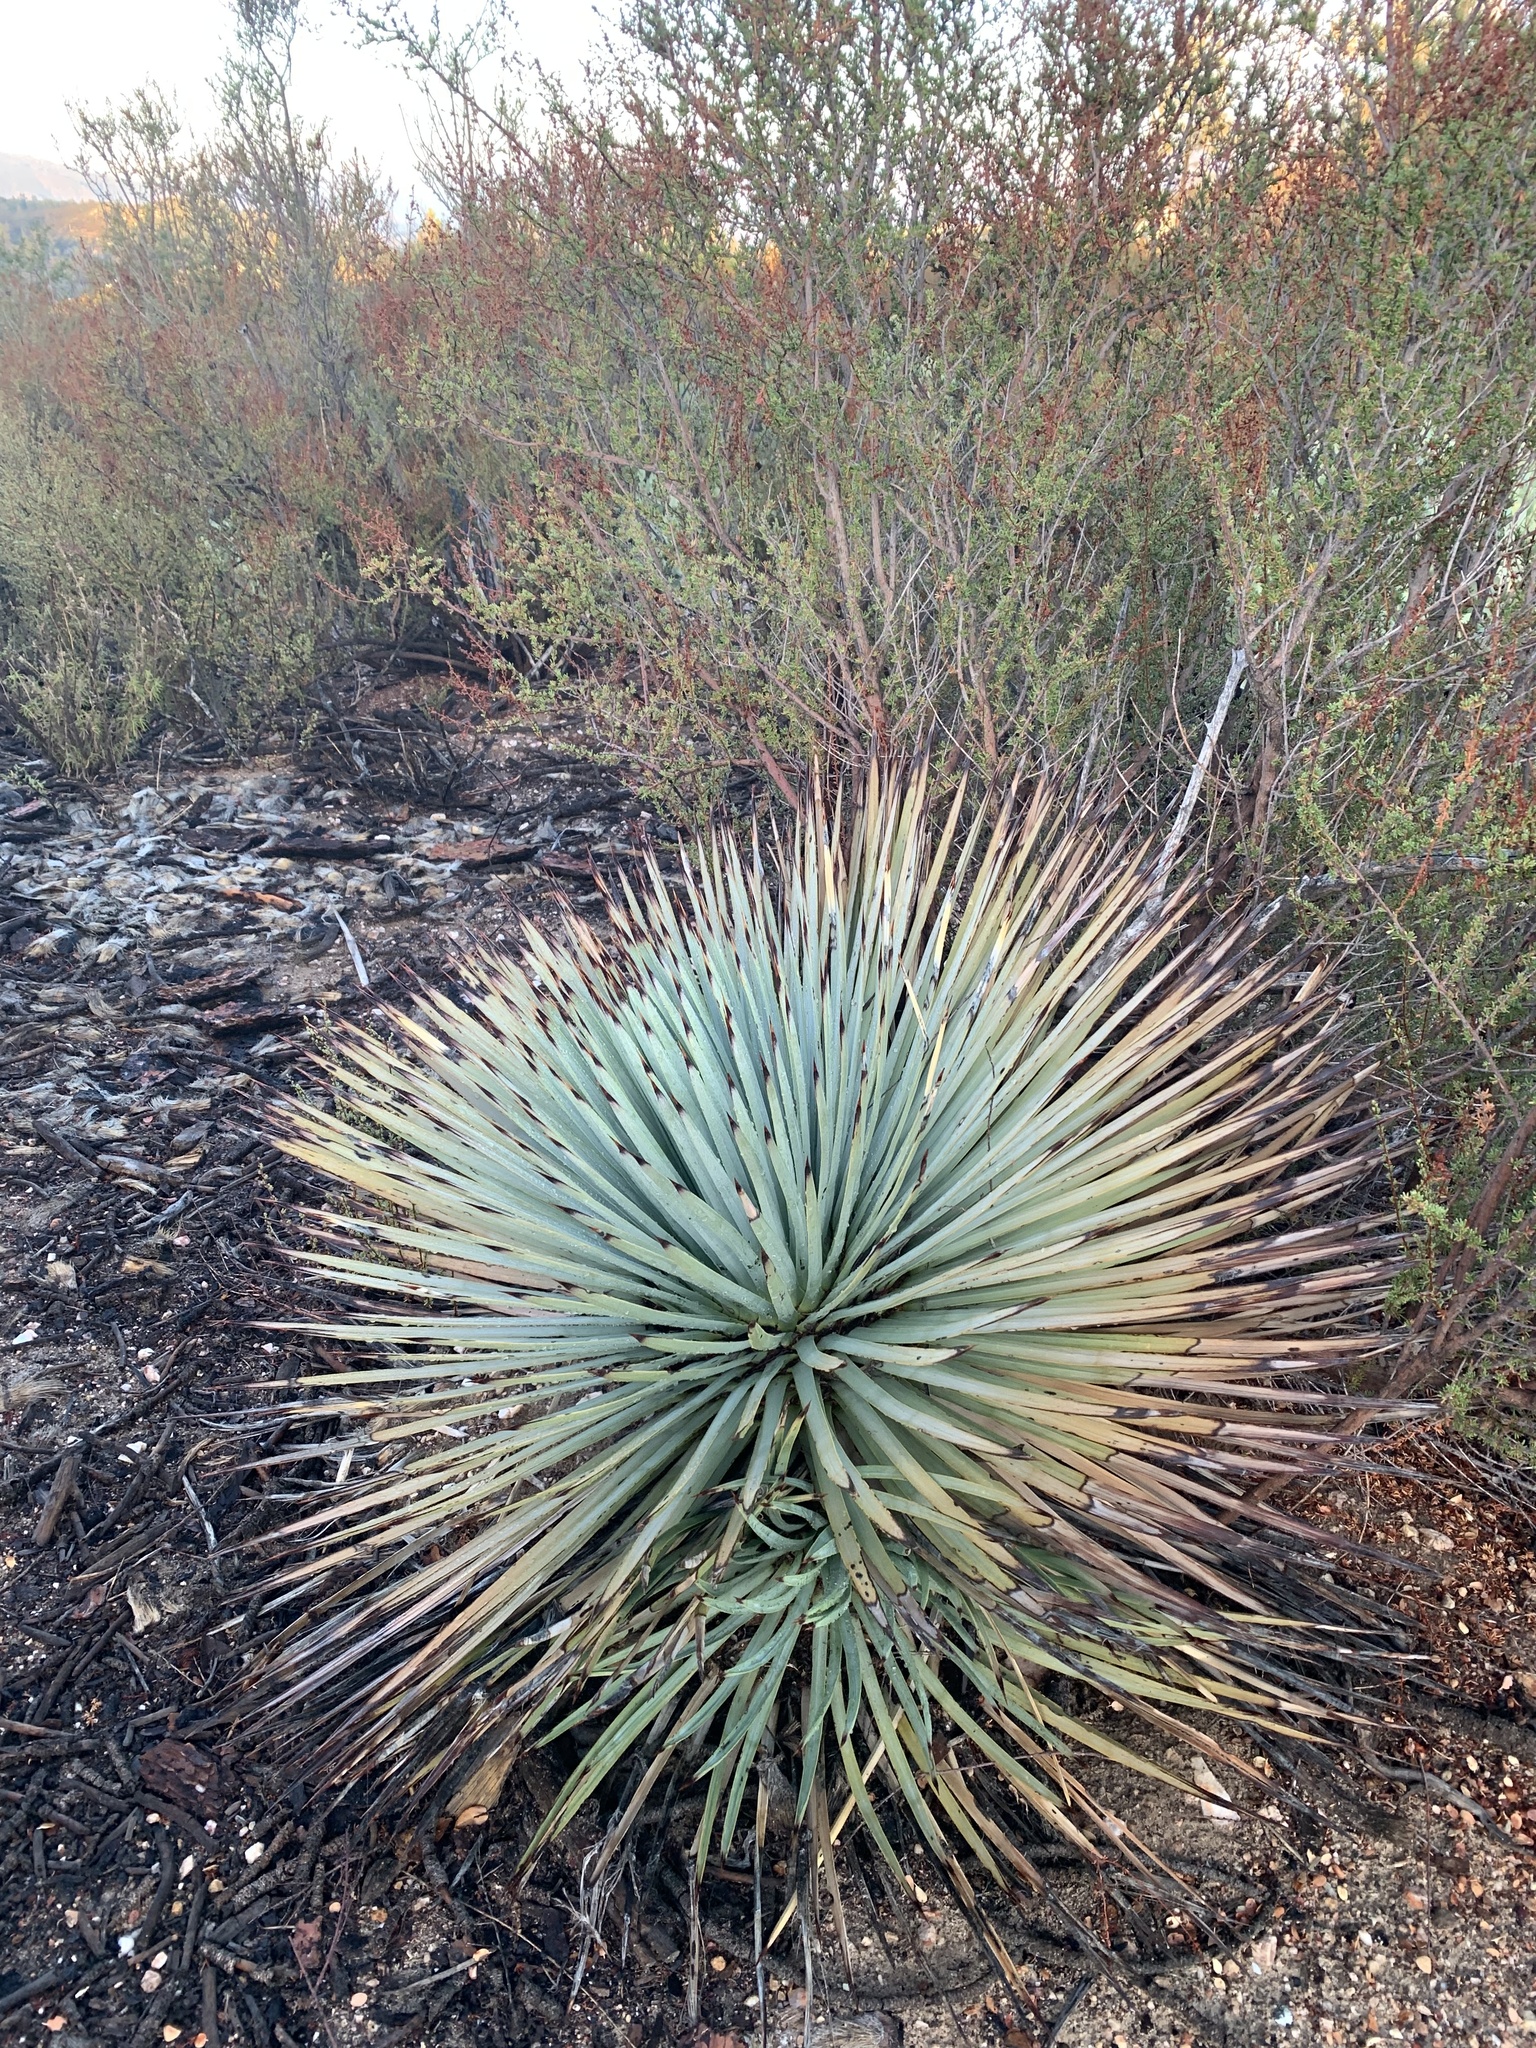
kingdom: Plantae
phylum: Tracheophyta
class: Liliopsida
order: Asparagales
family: Asparagaceae
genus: Hesperoyucca
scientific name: Hesperoyucca whipplei
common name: Our lord's-candle
